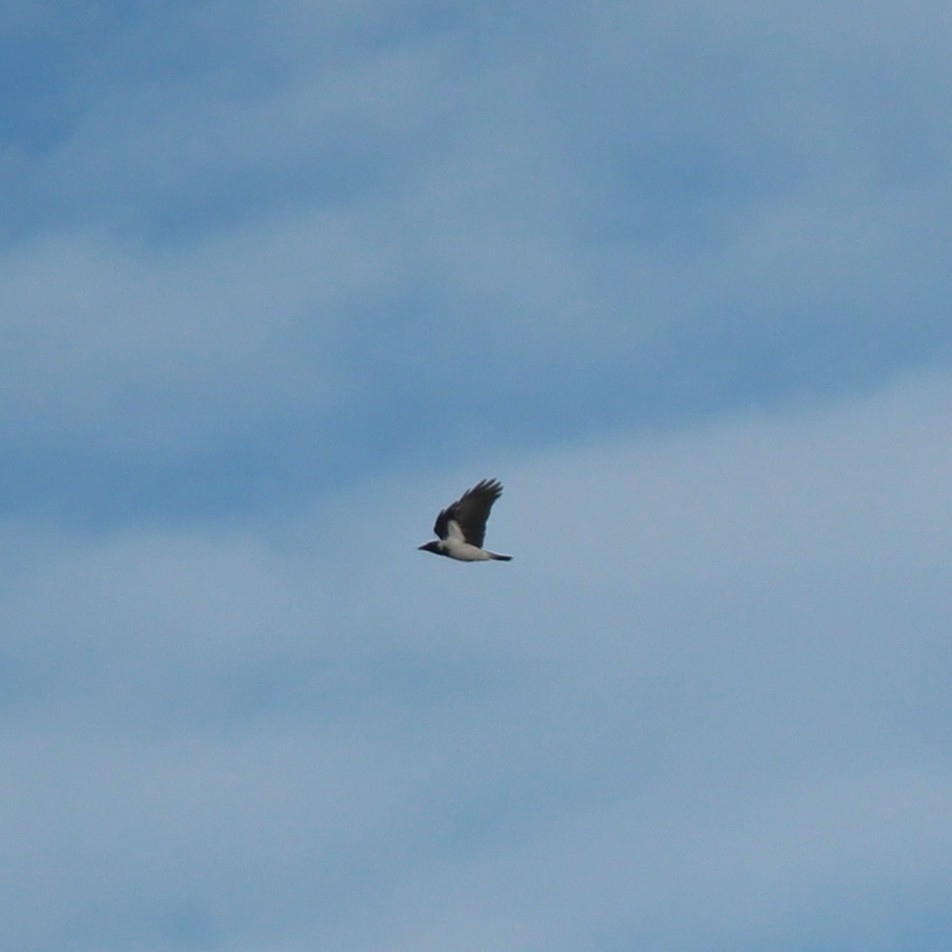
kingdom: Animalia
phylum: Chordata
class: Aves
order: Passeriformes
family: Corvidae
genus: Corvus
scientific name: Corvus cornix
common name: Hooded crow
